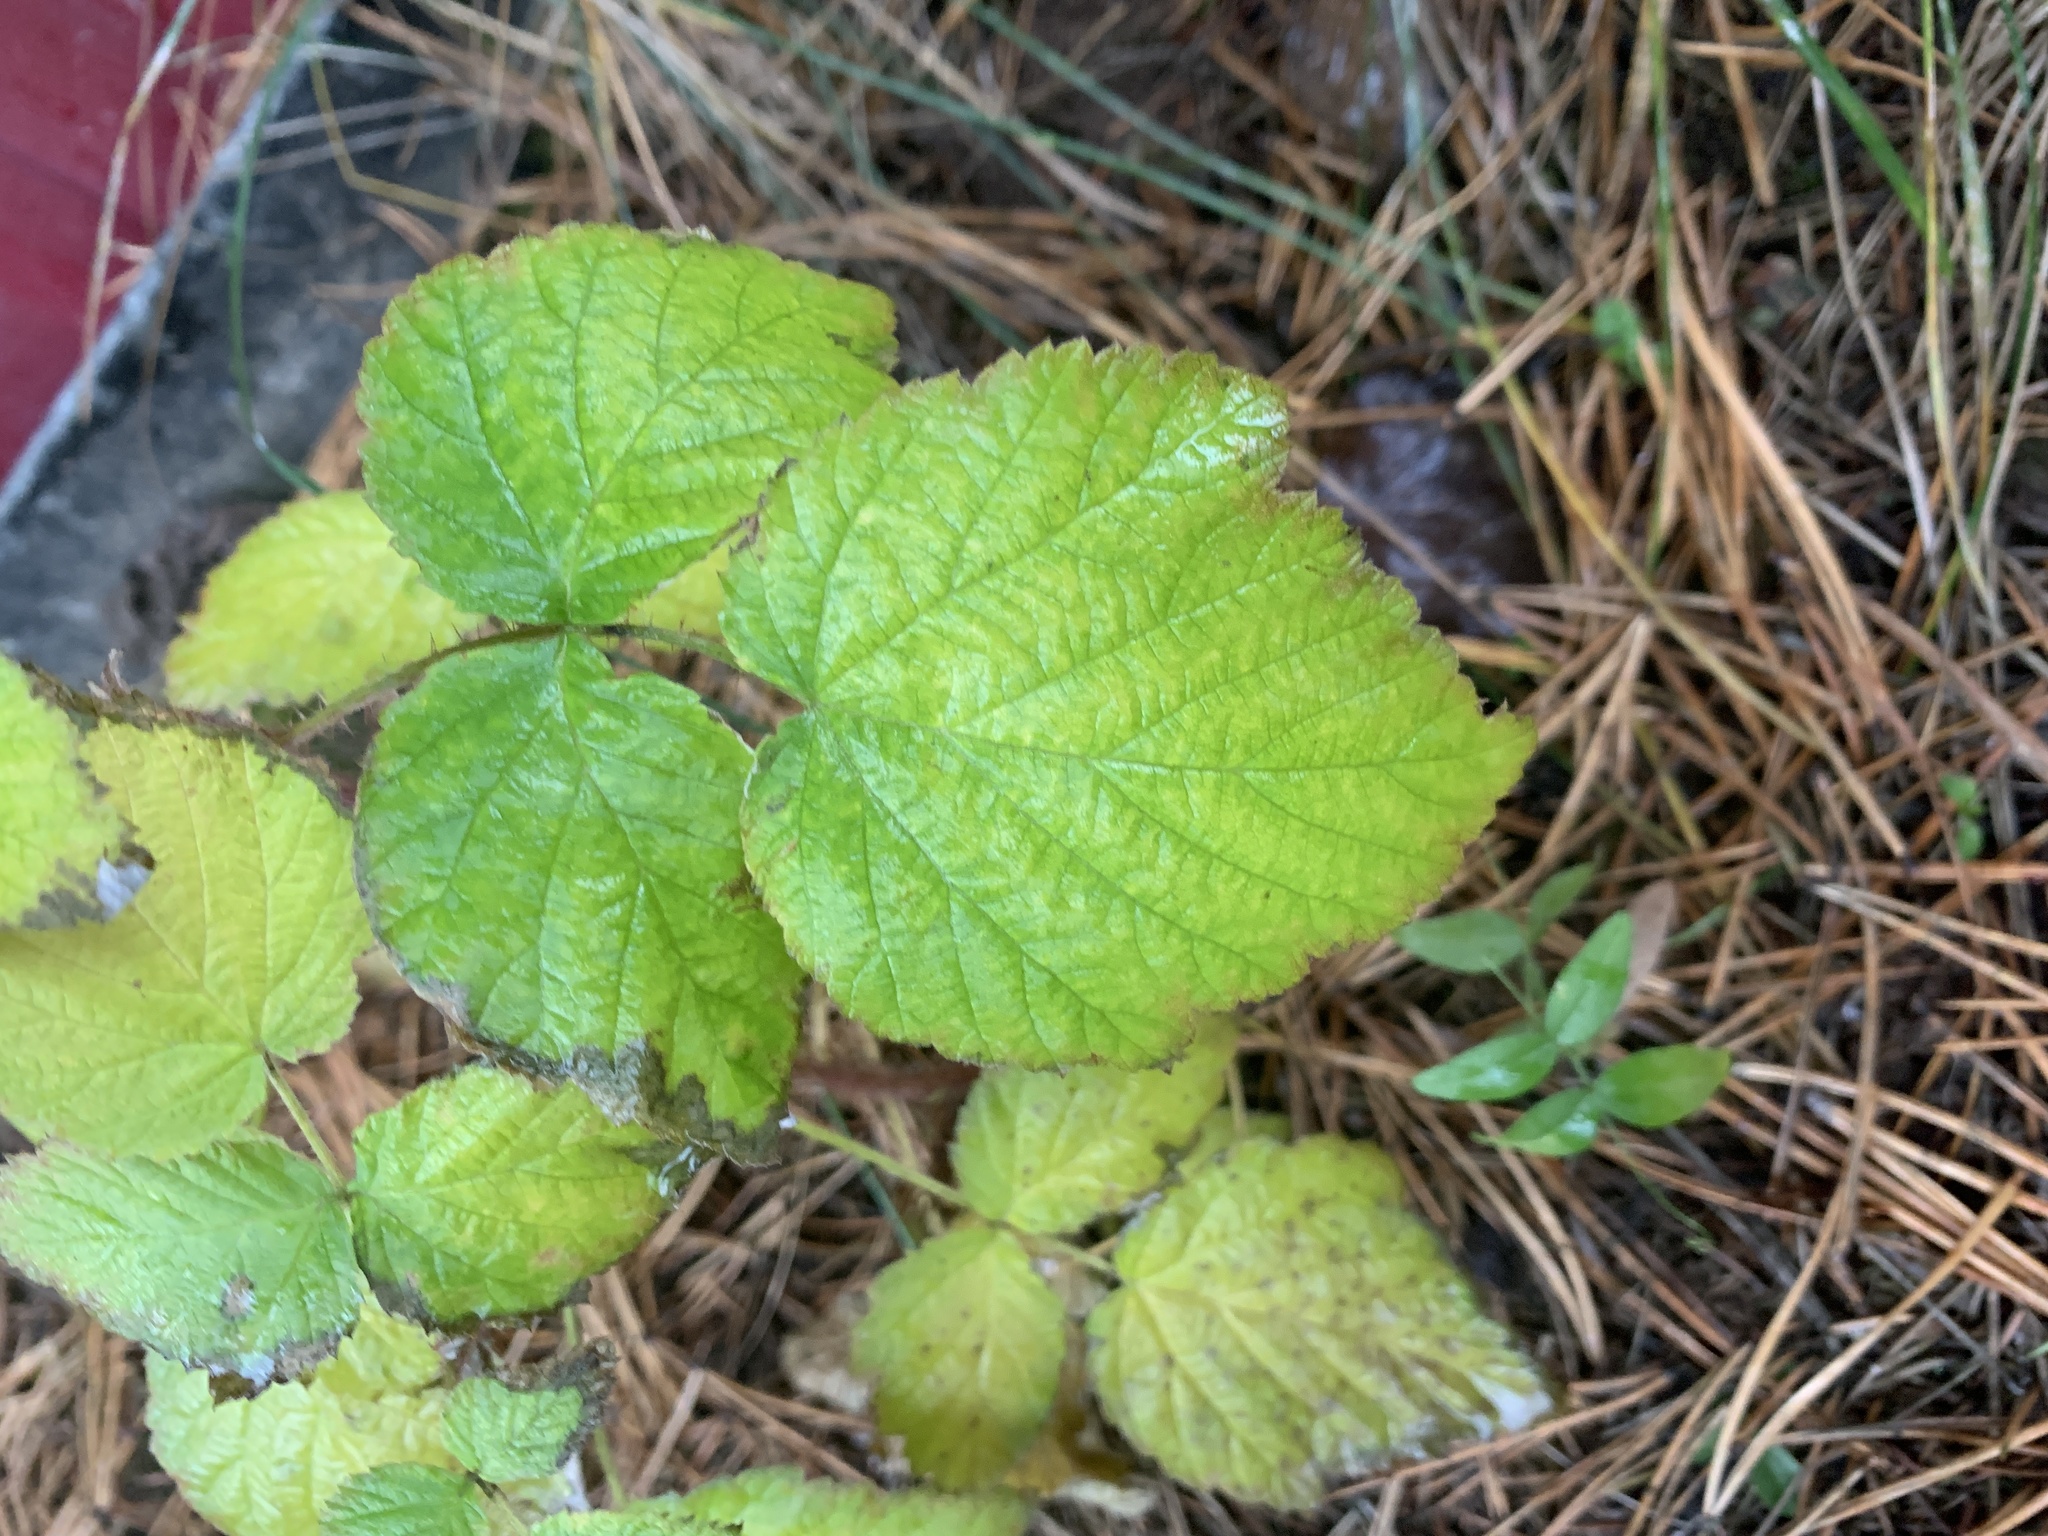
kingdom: Plantae
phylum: Tracheophyta
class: Magnoliopsida
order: Rosales
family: Rosaceae
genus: Rubus
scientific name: Rubus idaeus
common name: Raspberry
